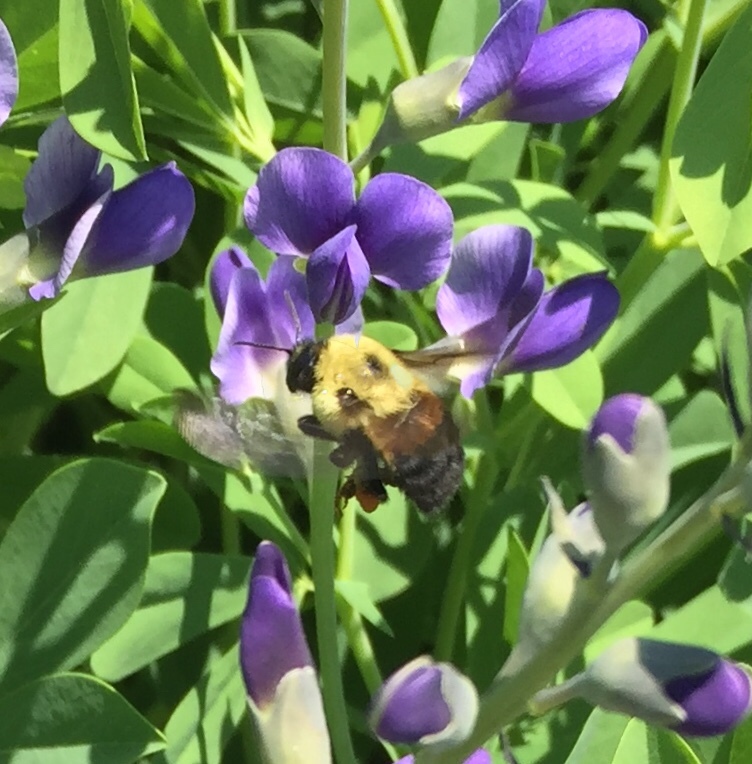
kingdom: Animalia
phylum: Arthropoda
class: Insecta
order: Hymenoptera
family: Apidae
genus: Bombus
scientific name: Bombus griseocollis
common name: Brown-belted bumble bee
